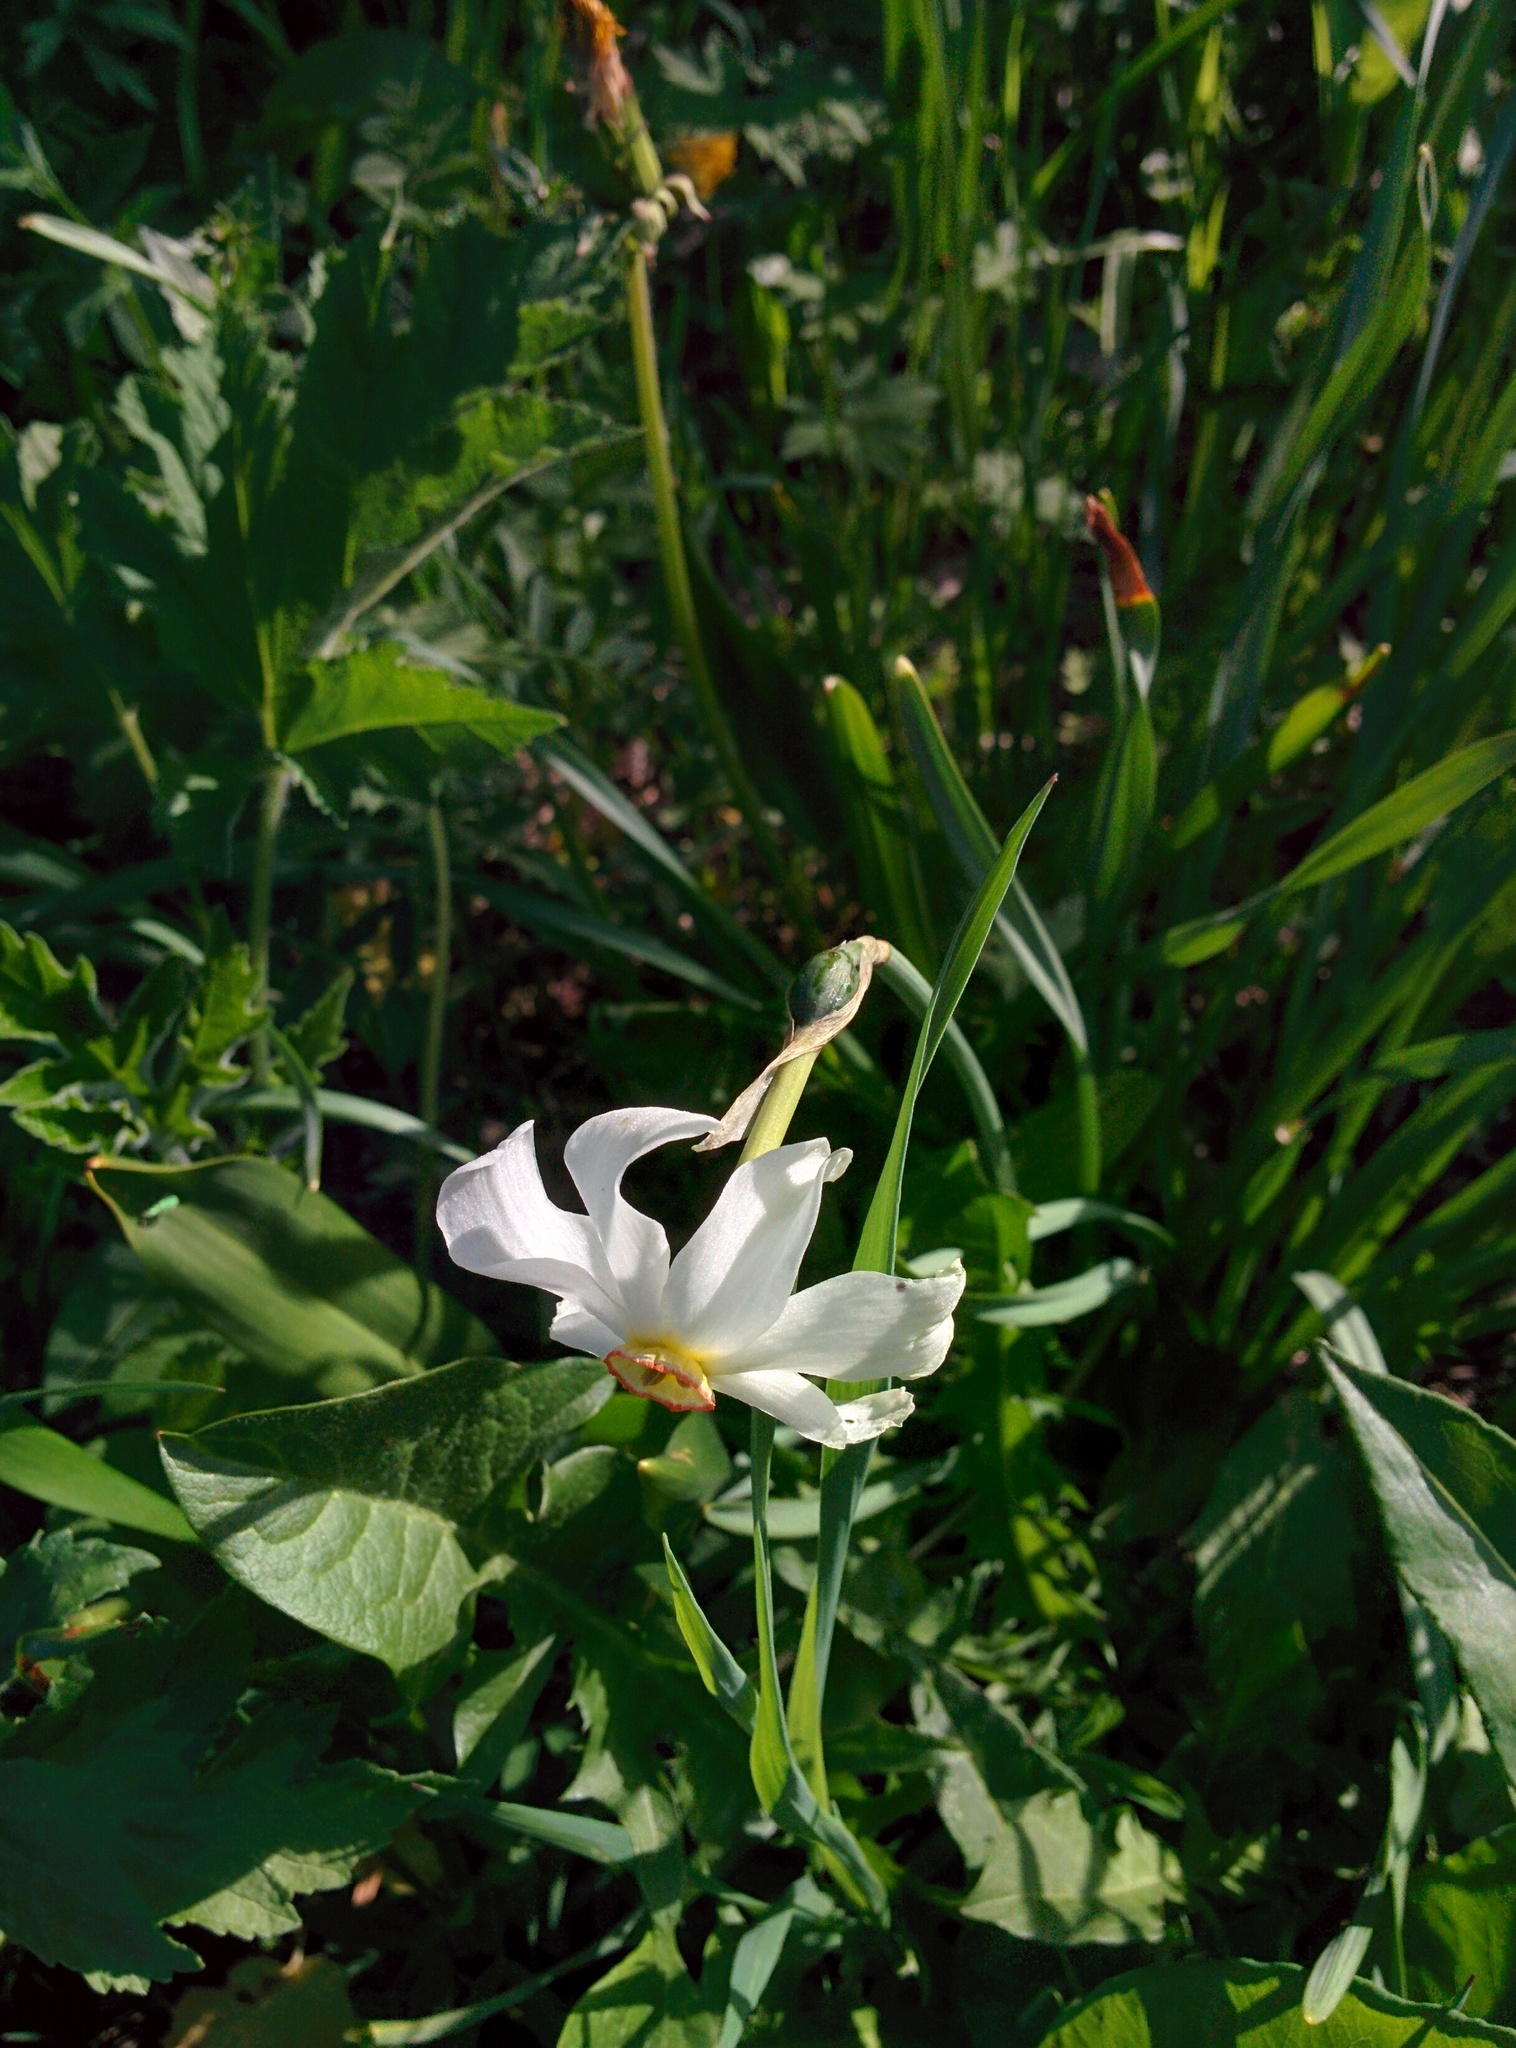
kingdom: Plantae
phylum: Tracheophyta
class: Liliopsida
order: Asparagales
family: Amaryllidaceae
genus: Narcissus
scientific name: Narcissus poeticus
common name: Pheasant's-eye daffodil
